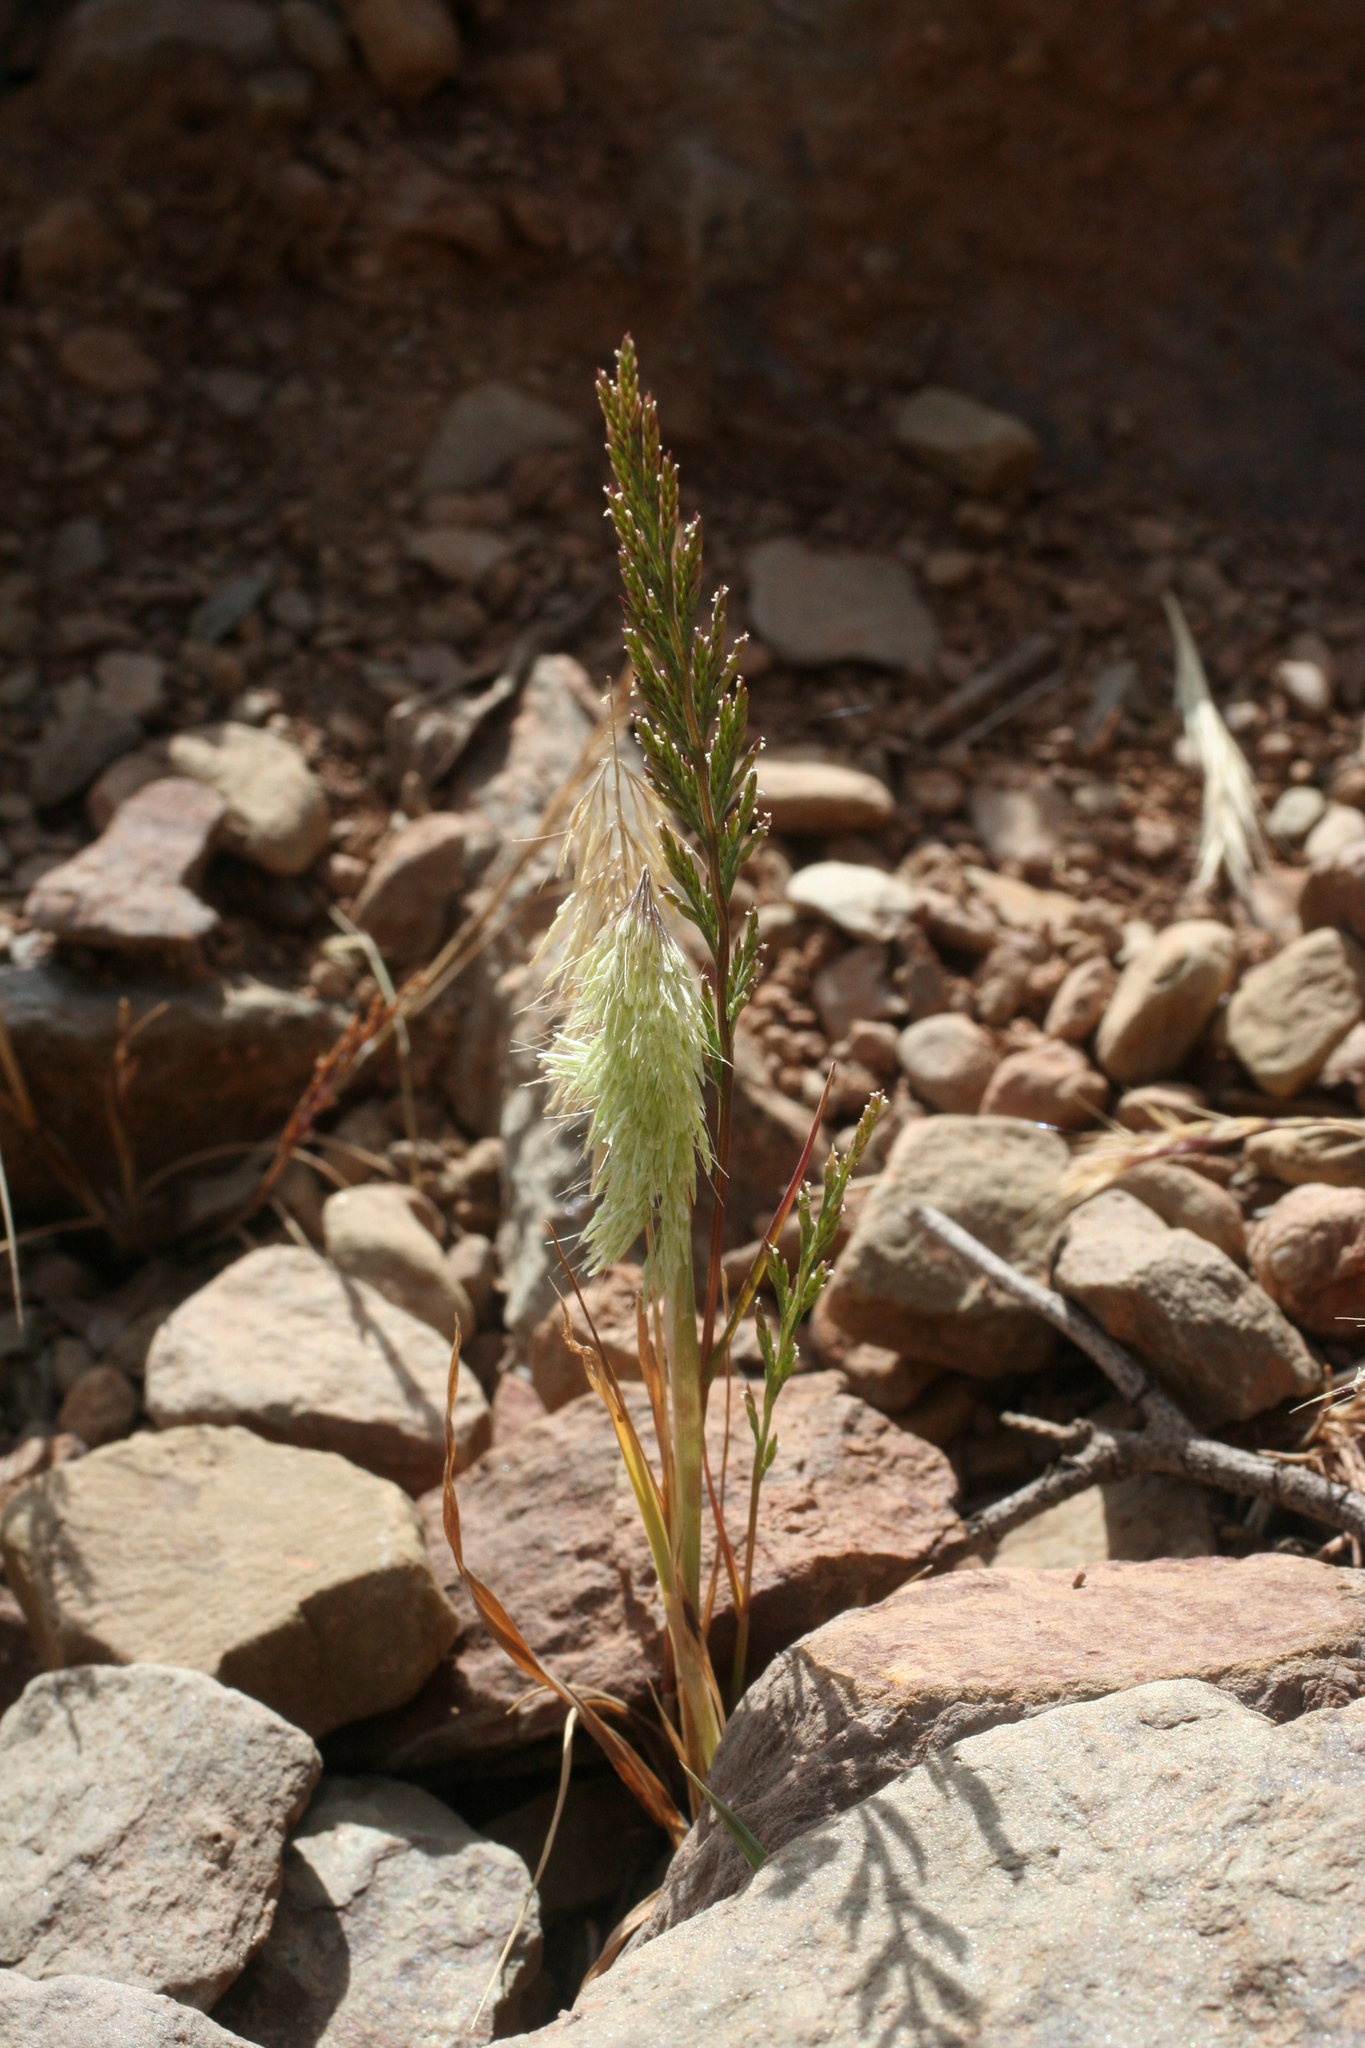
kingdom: Plantae
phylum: Tracheophyta
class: Liliopsida
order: Poales
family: Poaceae
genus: Lamarckia
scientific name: Lamarckia aurea
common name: Golden dog's-tail
